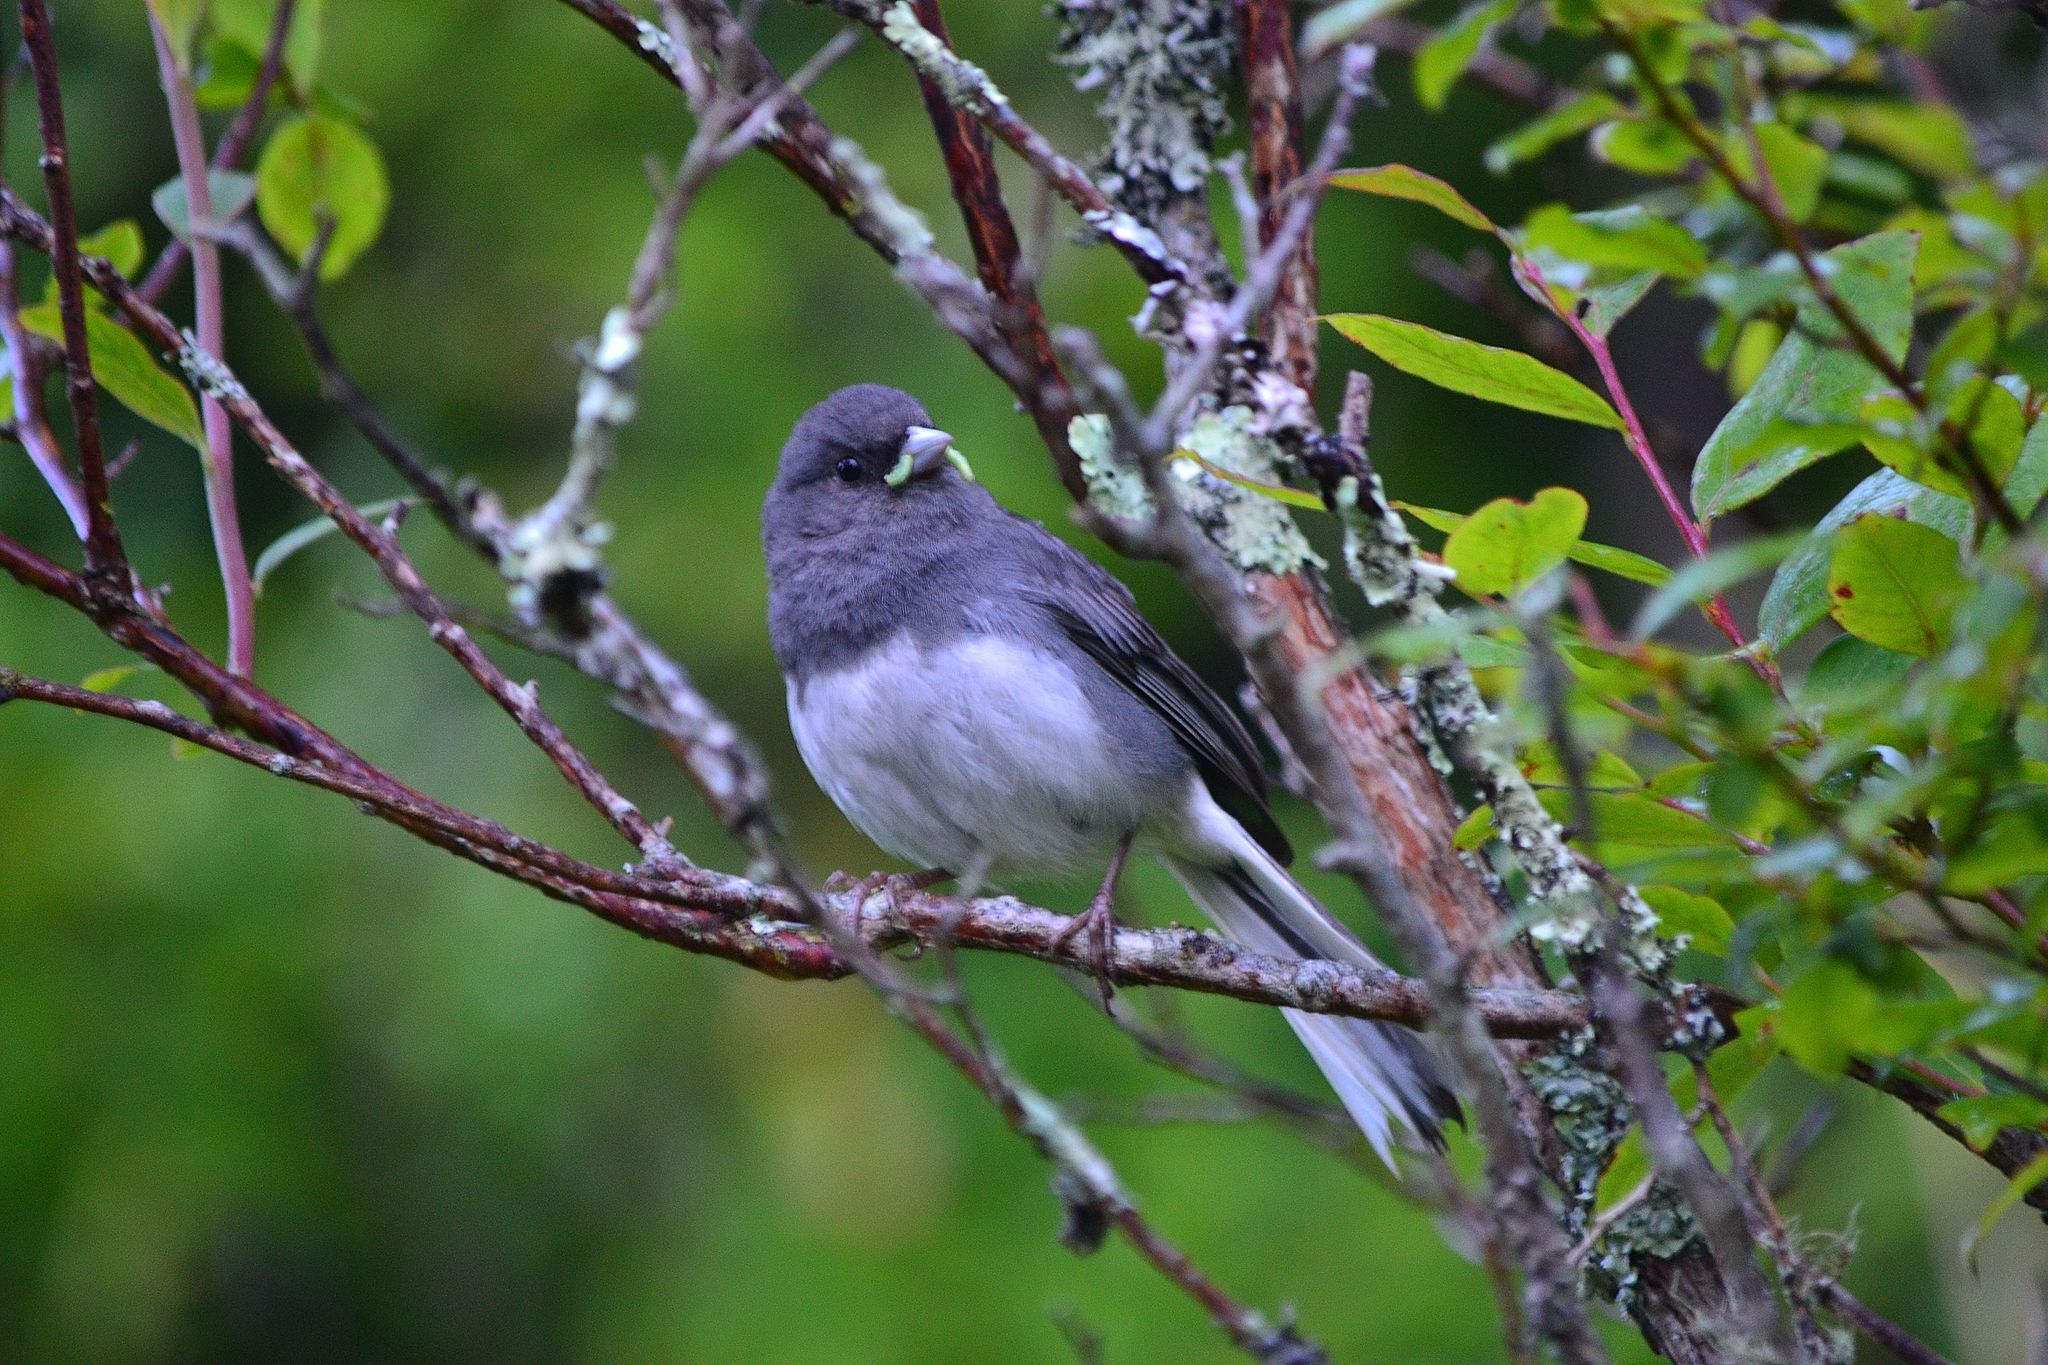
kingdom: Animalia
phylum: Chordata
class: Aves
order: Passeriformes
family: Passerellidae
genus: Junco
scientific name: Junco hyemalis
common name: Dark-eyed junco
